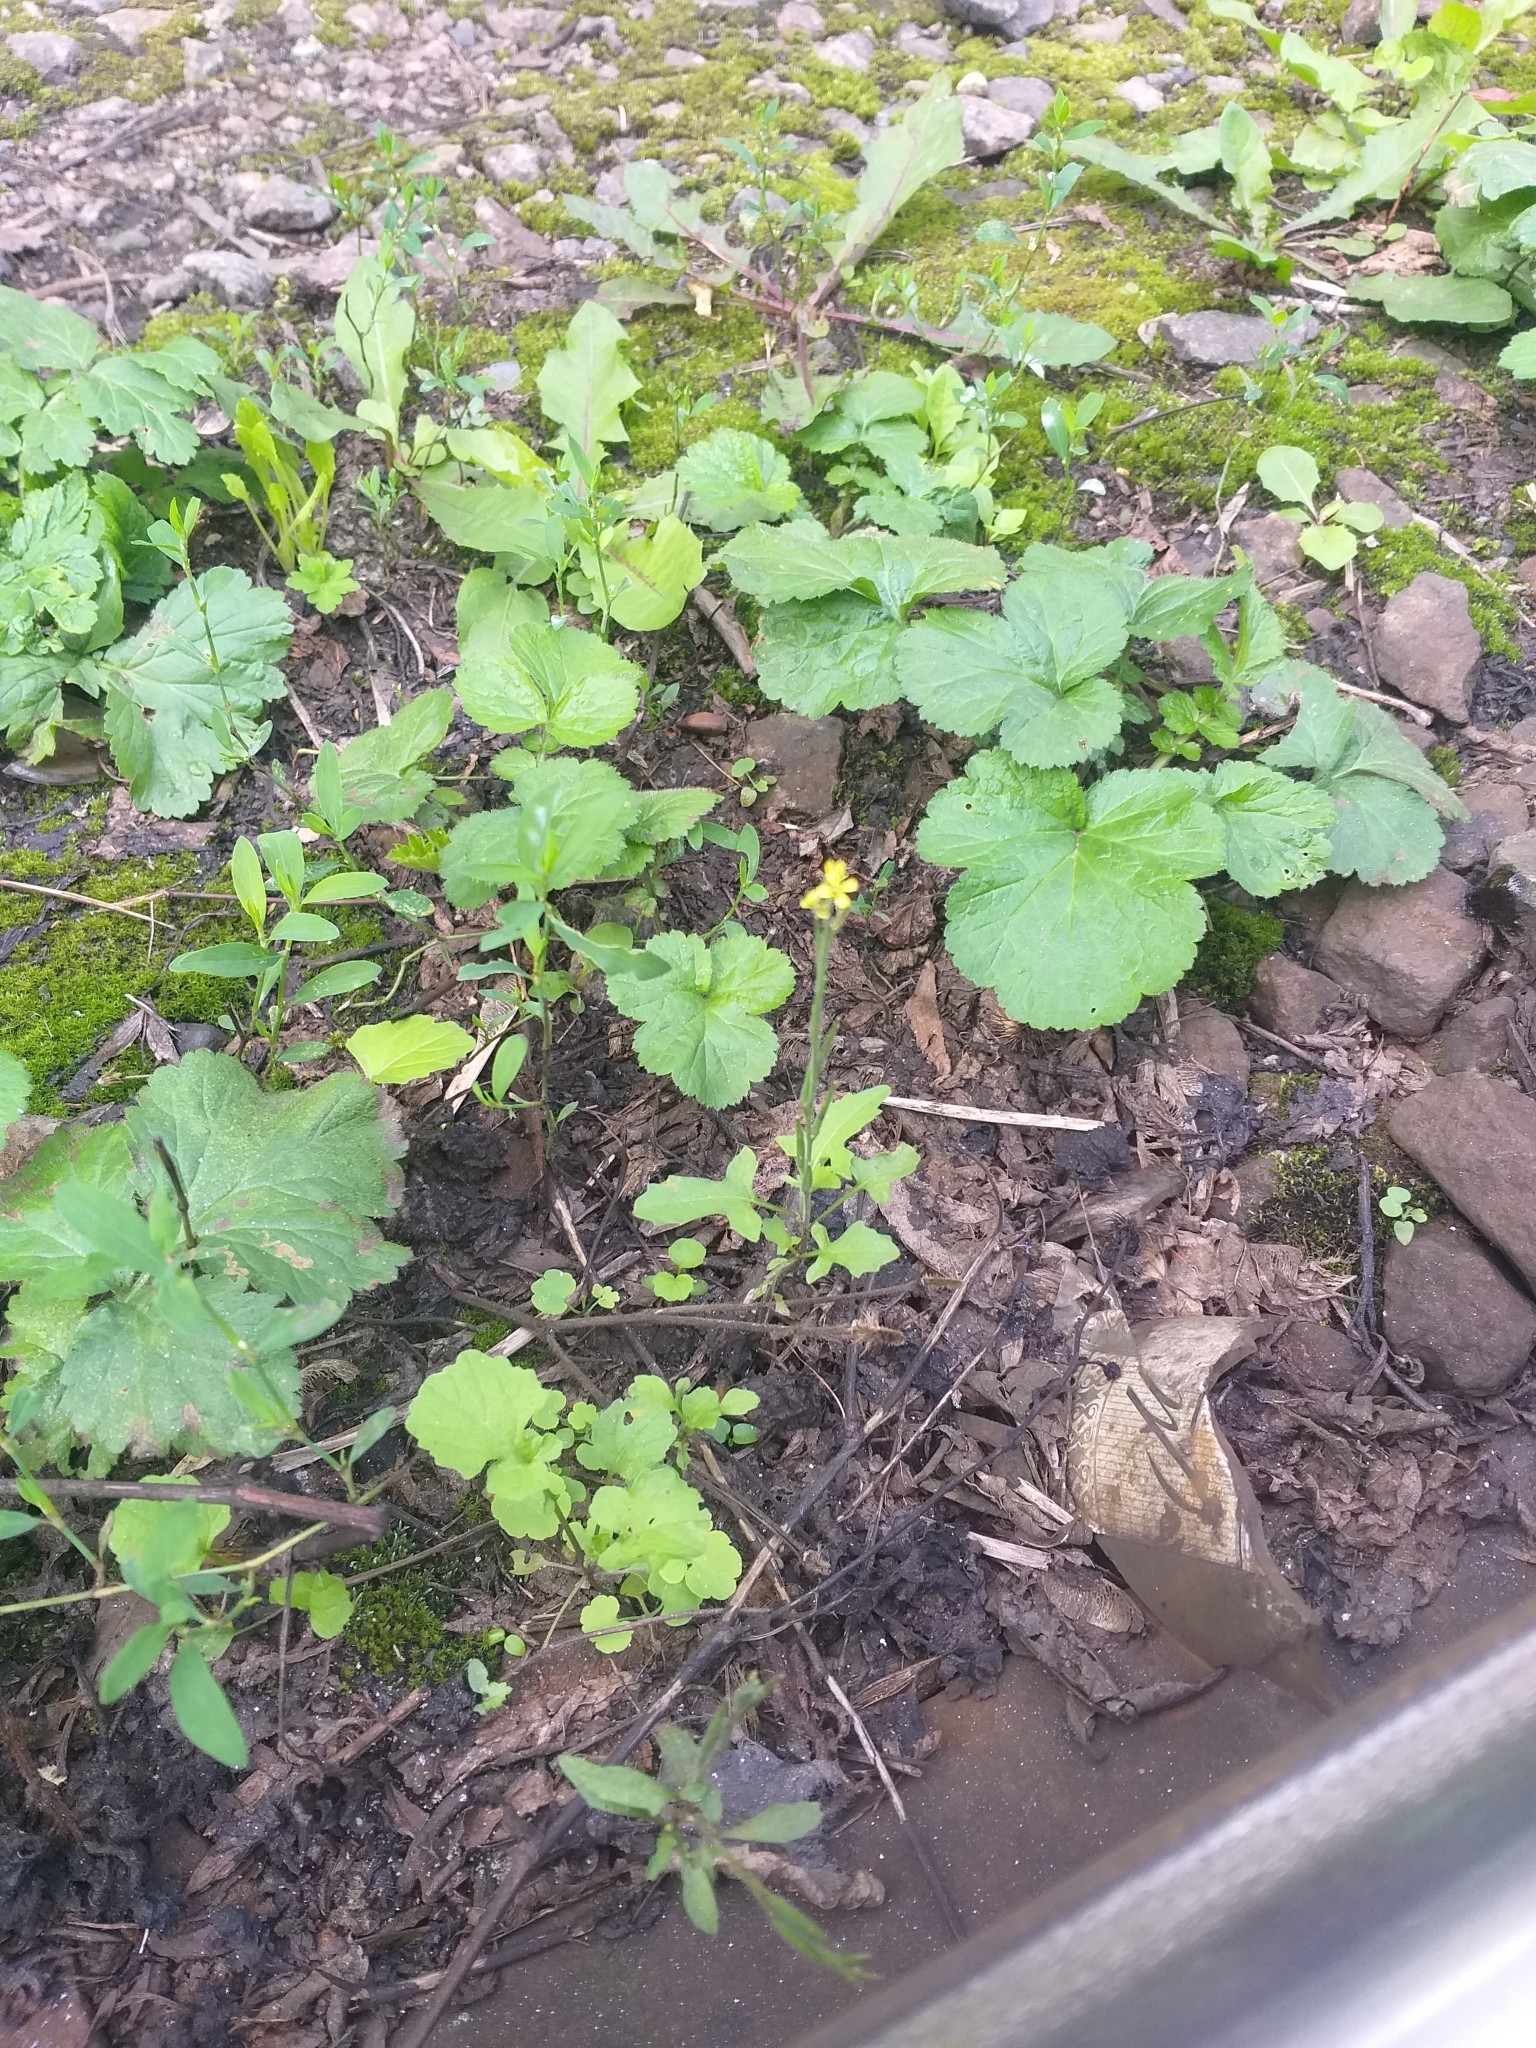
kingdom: Plantae
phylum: Tracheophyta
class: Magnoliopsida
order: Brassicales
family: Brassicaceae
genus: Sisymbrium
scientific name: Sisymbrium officinale
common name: Hedge mustard
